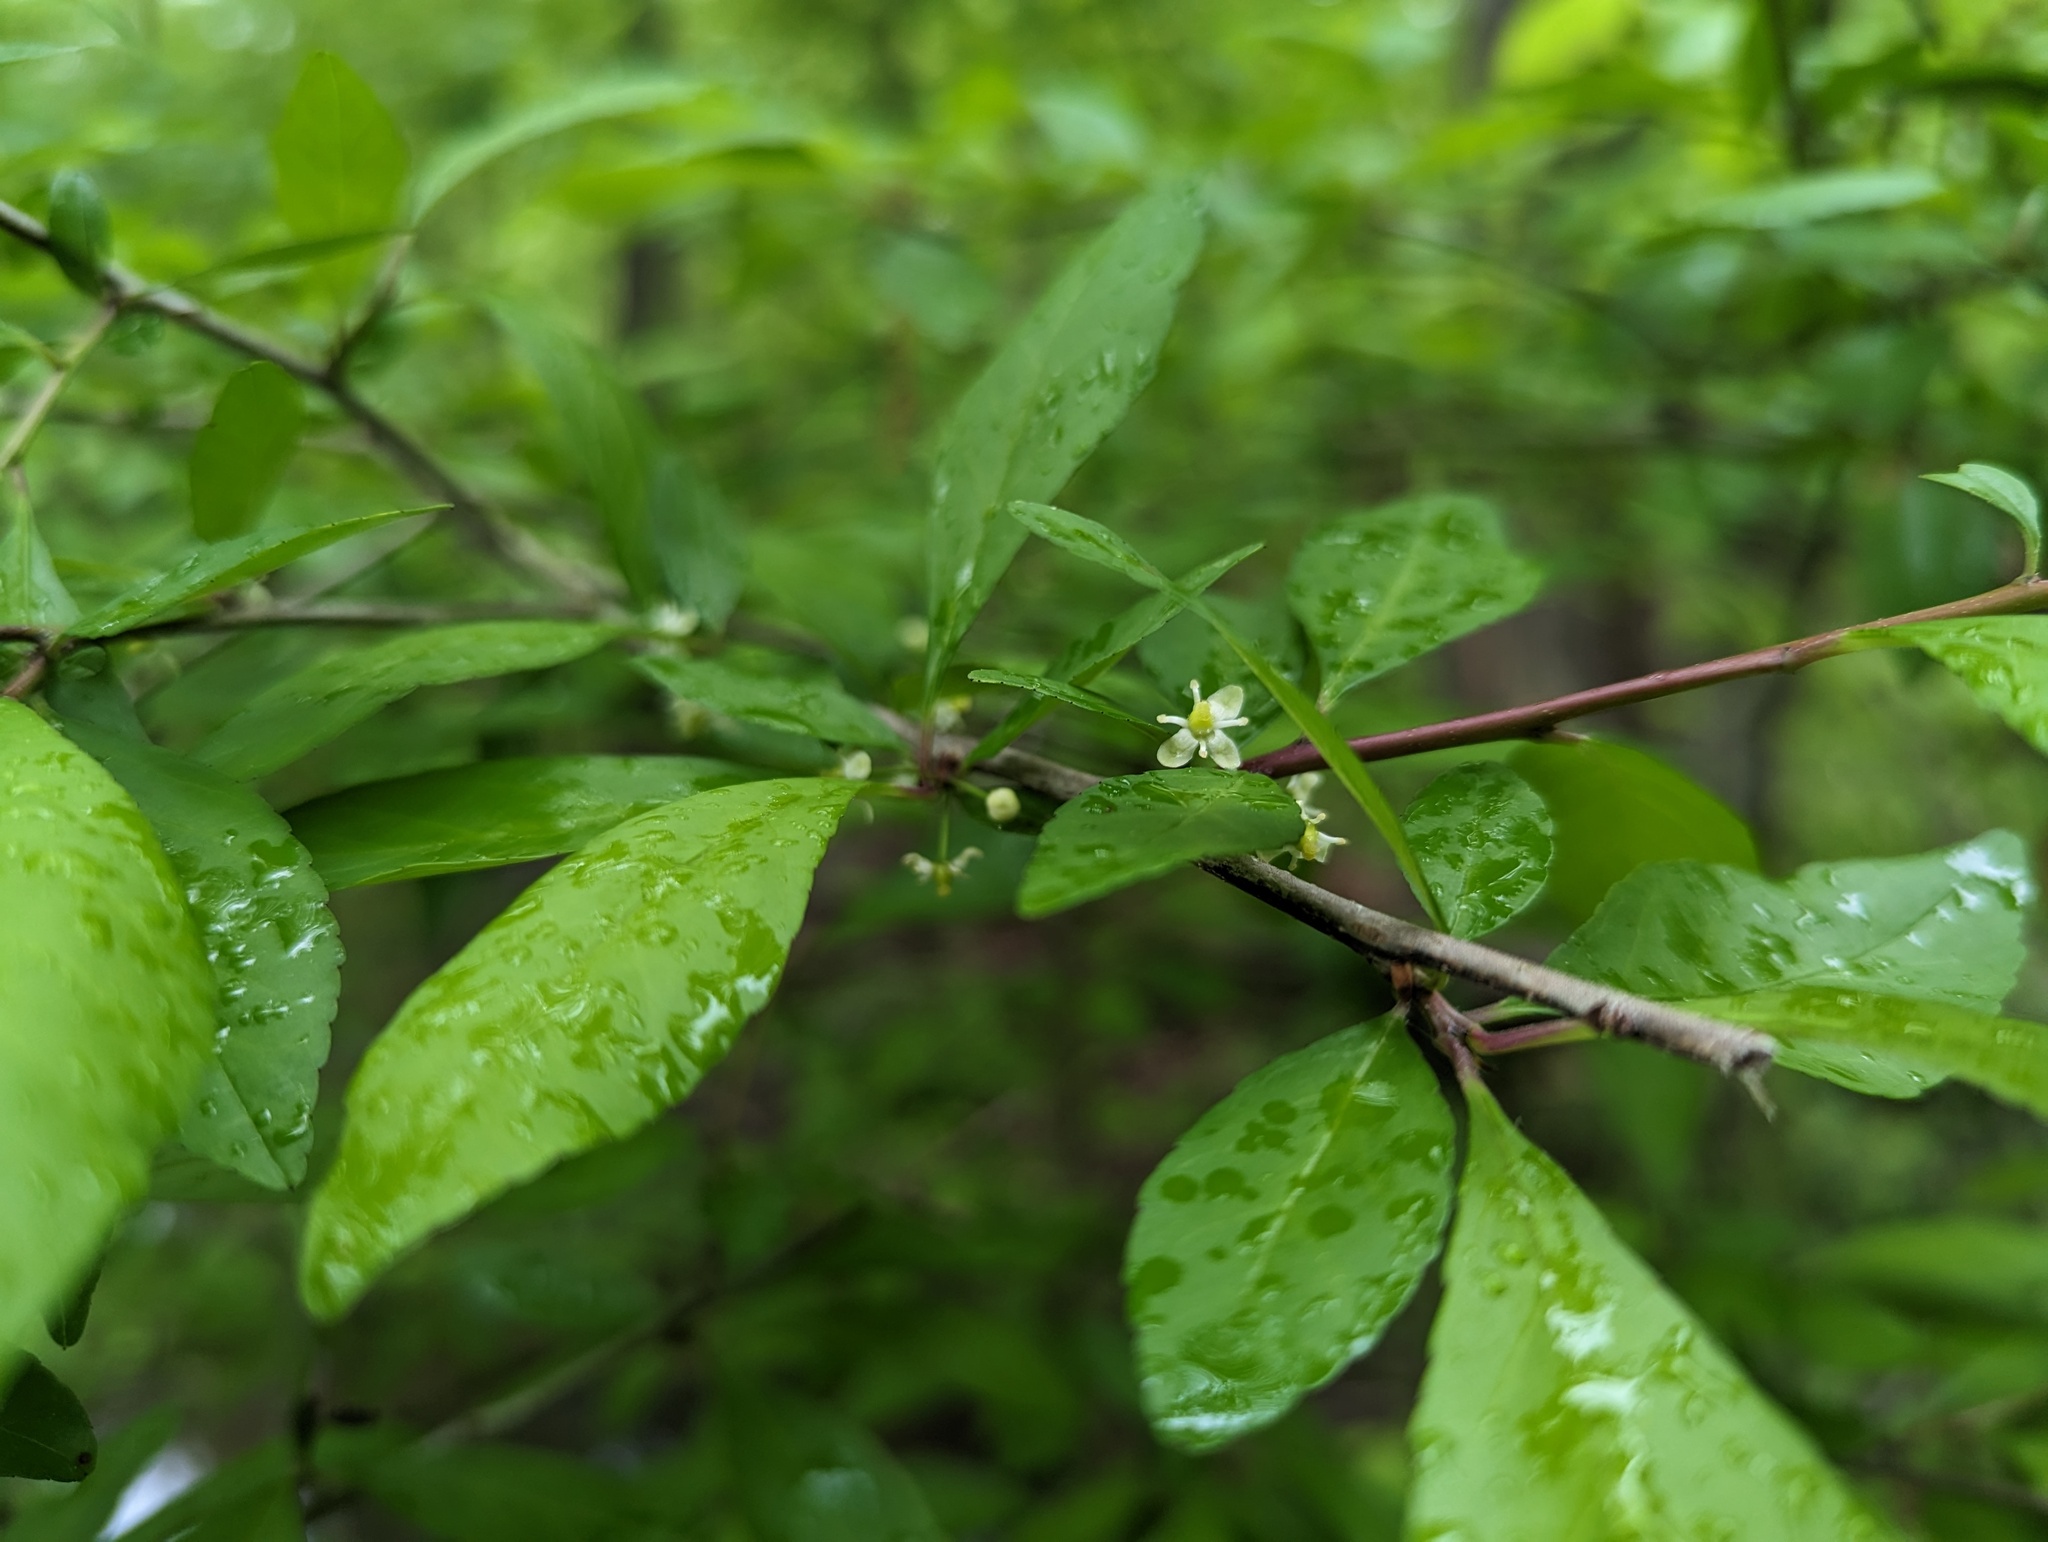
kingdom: Plantae
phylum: Tracheophyta
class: Magnoliopsida
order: Aquifoliales
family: Aquifoliaceae
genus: Ilex
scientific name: Ilex decidua
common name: Possum-haw
